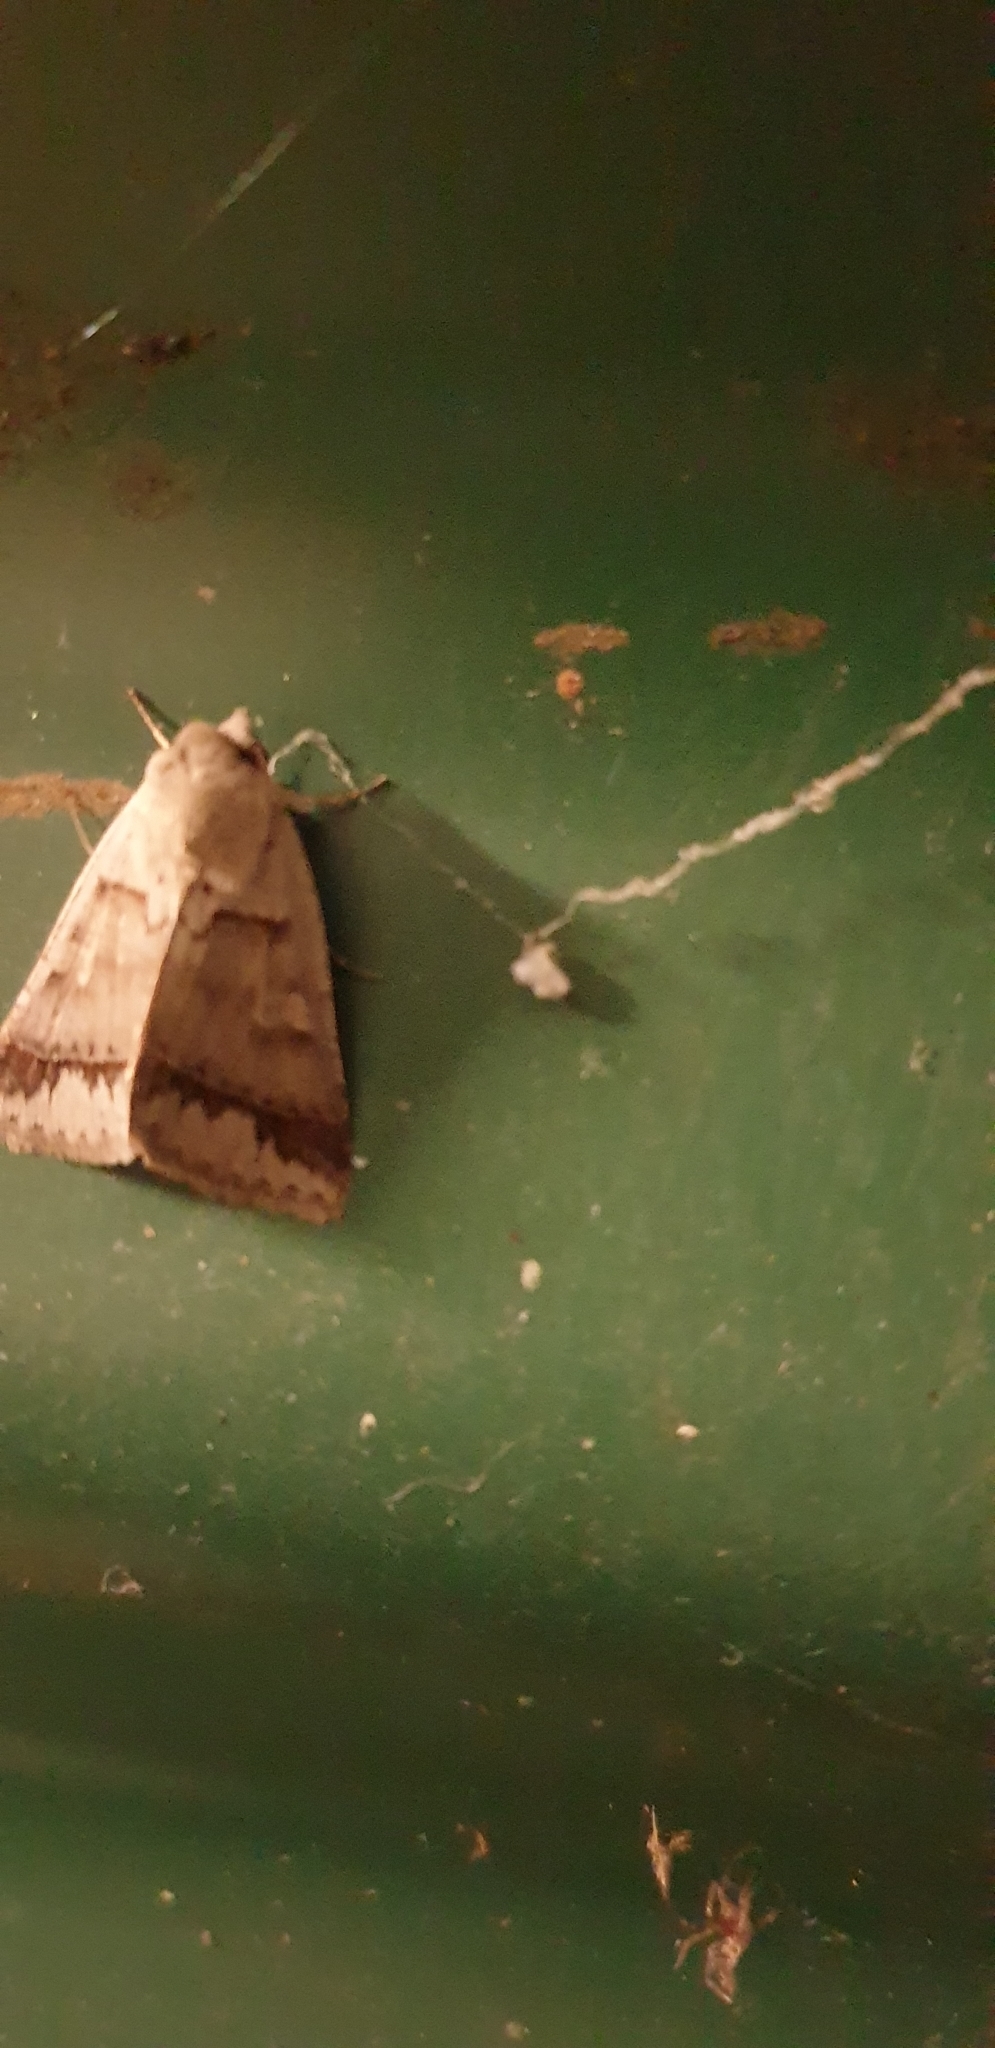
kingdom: Animalia
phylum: Arthropoda
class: Insecta
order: Lepidoptera
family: Erebidae
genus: Pantydia
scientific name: Pantydia sparsa
